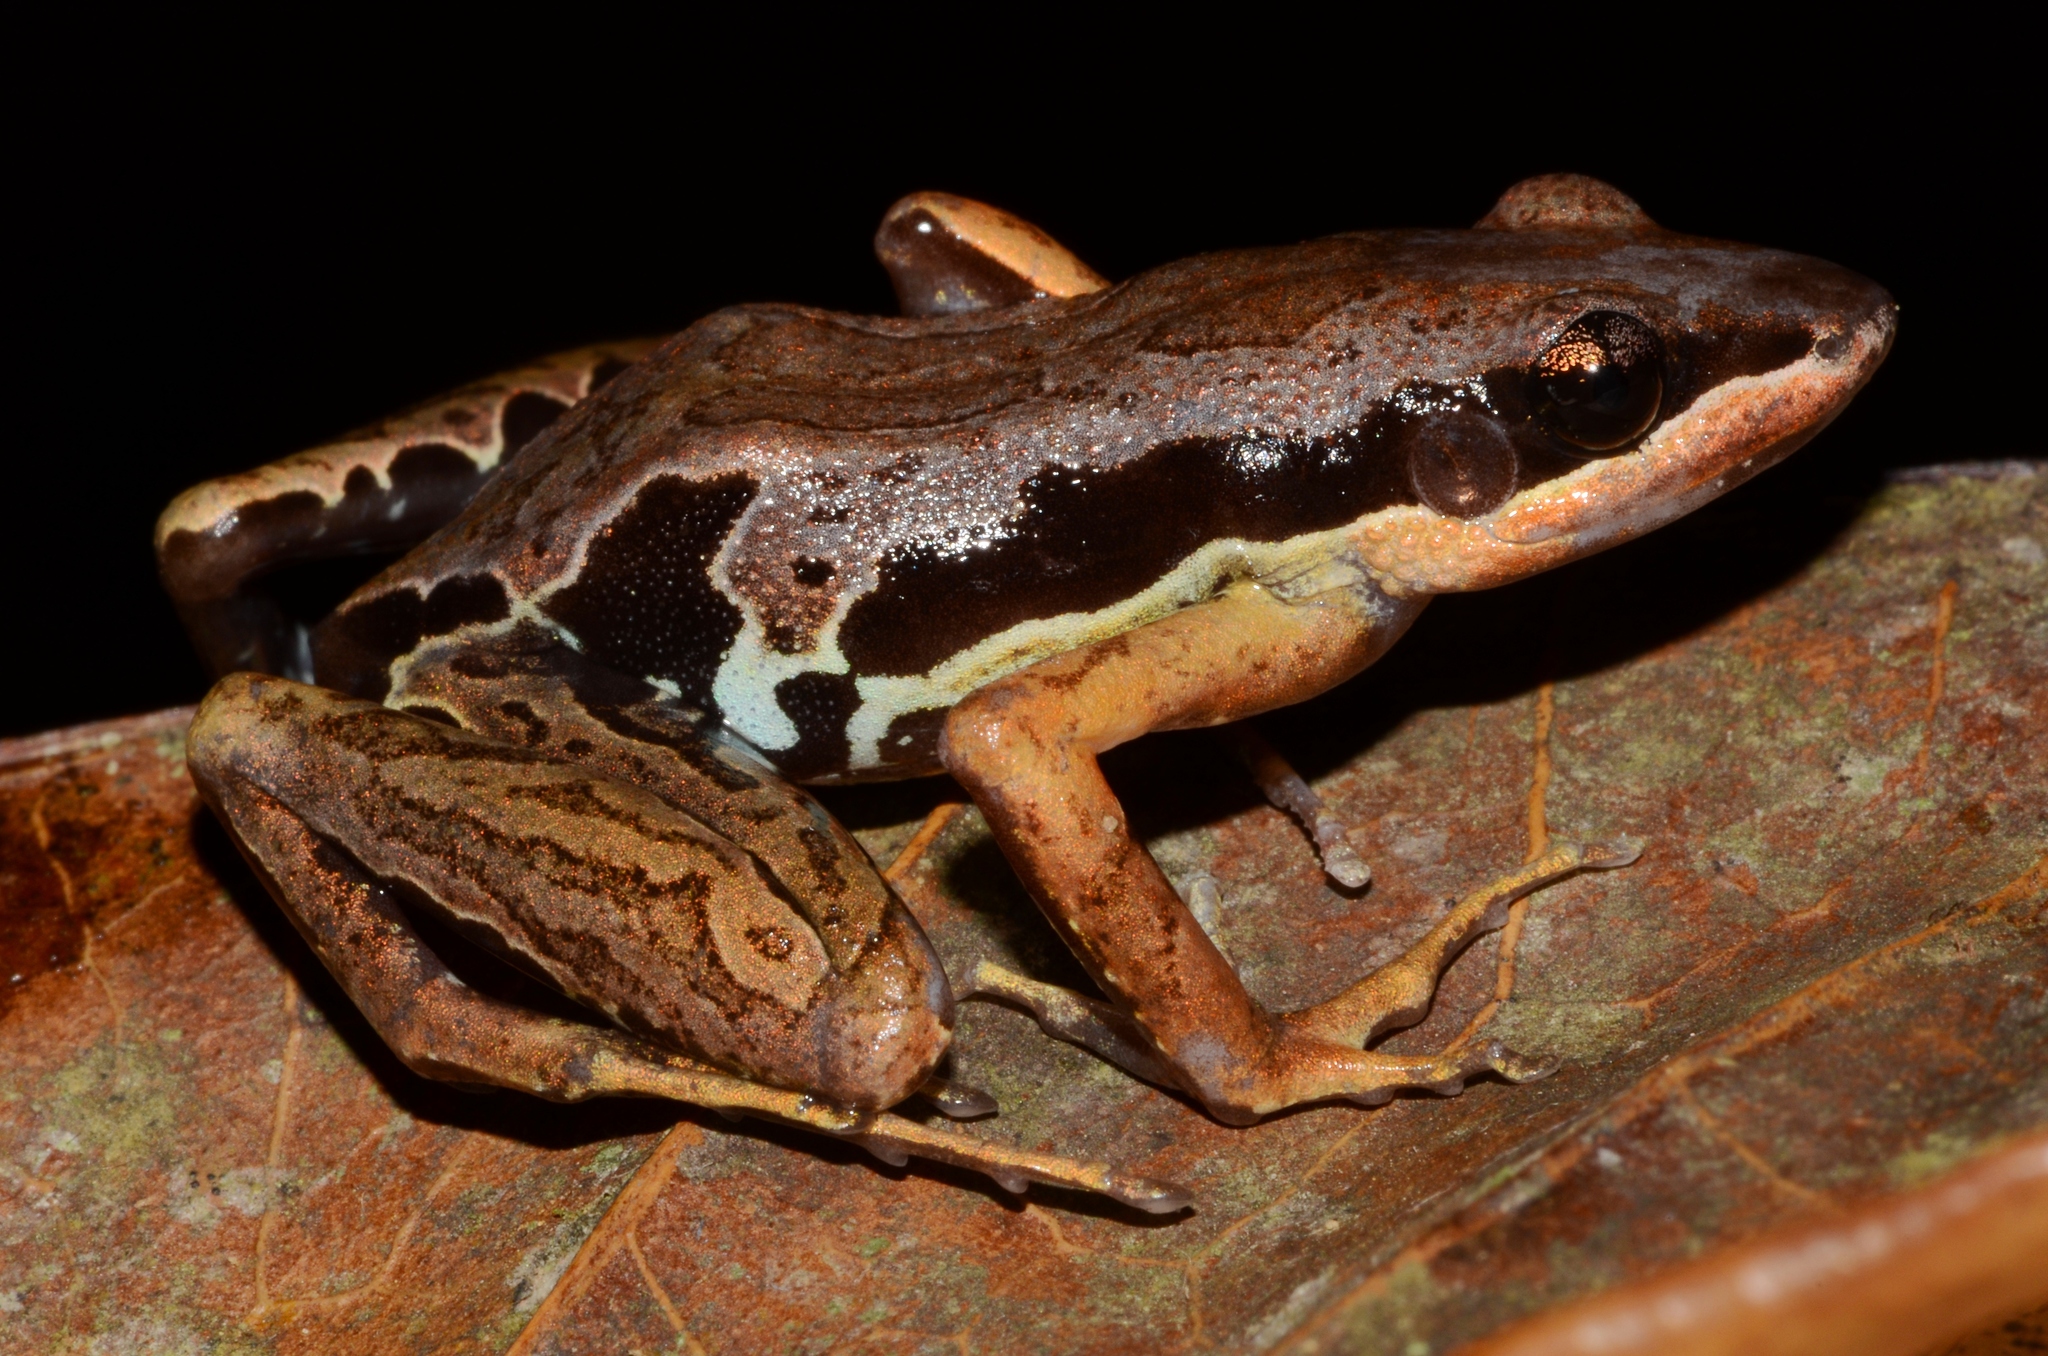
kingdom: Animalia
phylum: Chordata
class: Amphibia
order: Anura
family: Arthroleptidae
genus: Cardioglossa
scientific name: Cardioglossa gracilis
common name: Rio benito long-fingered frog
